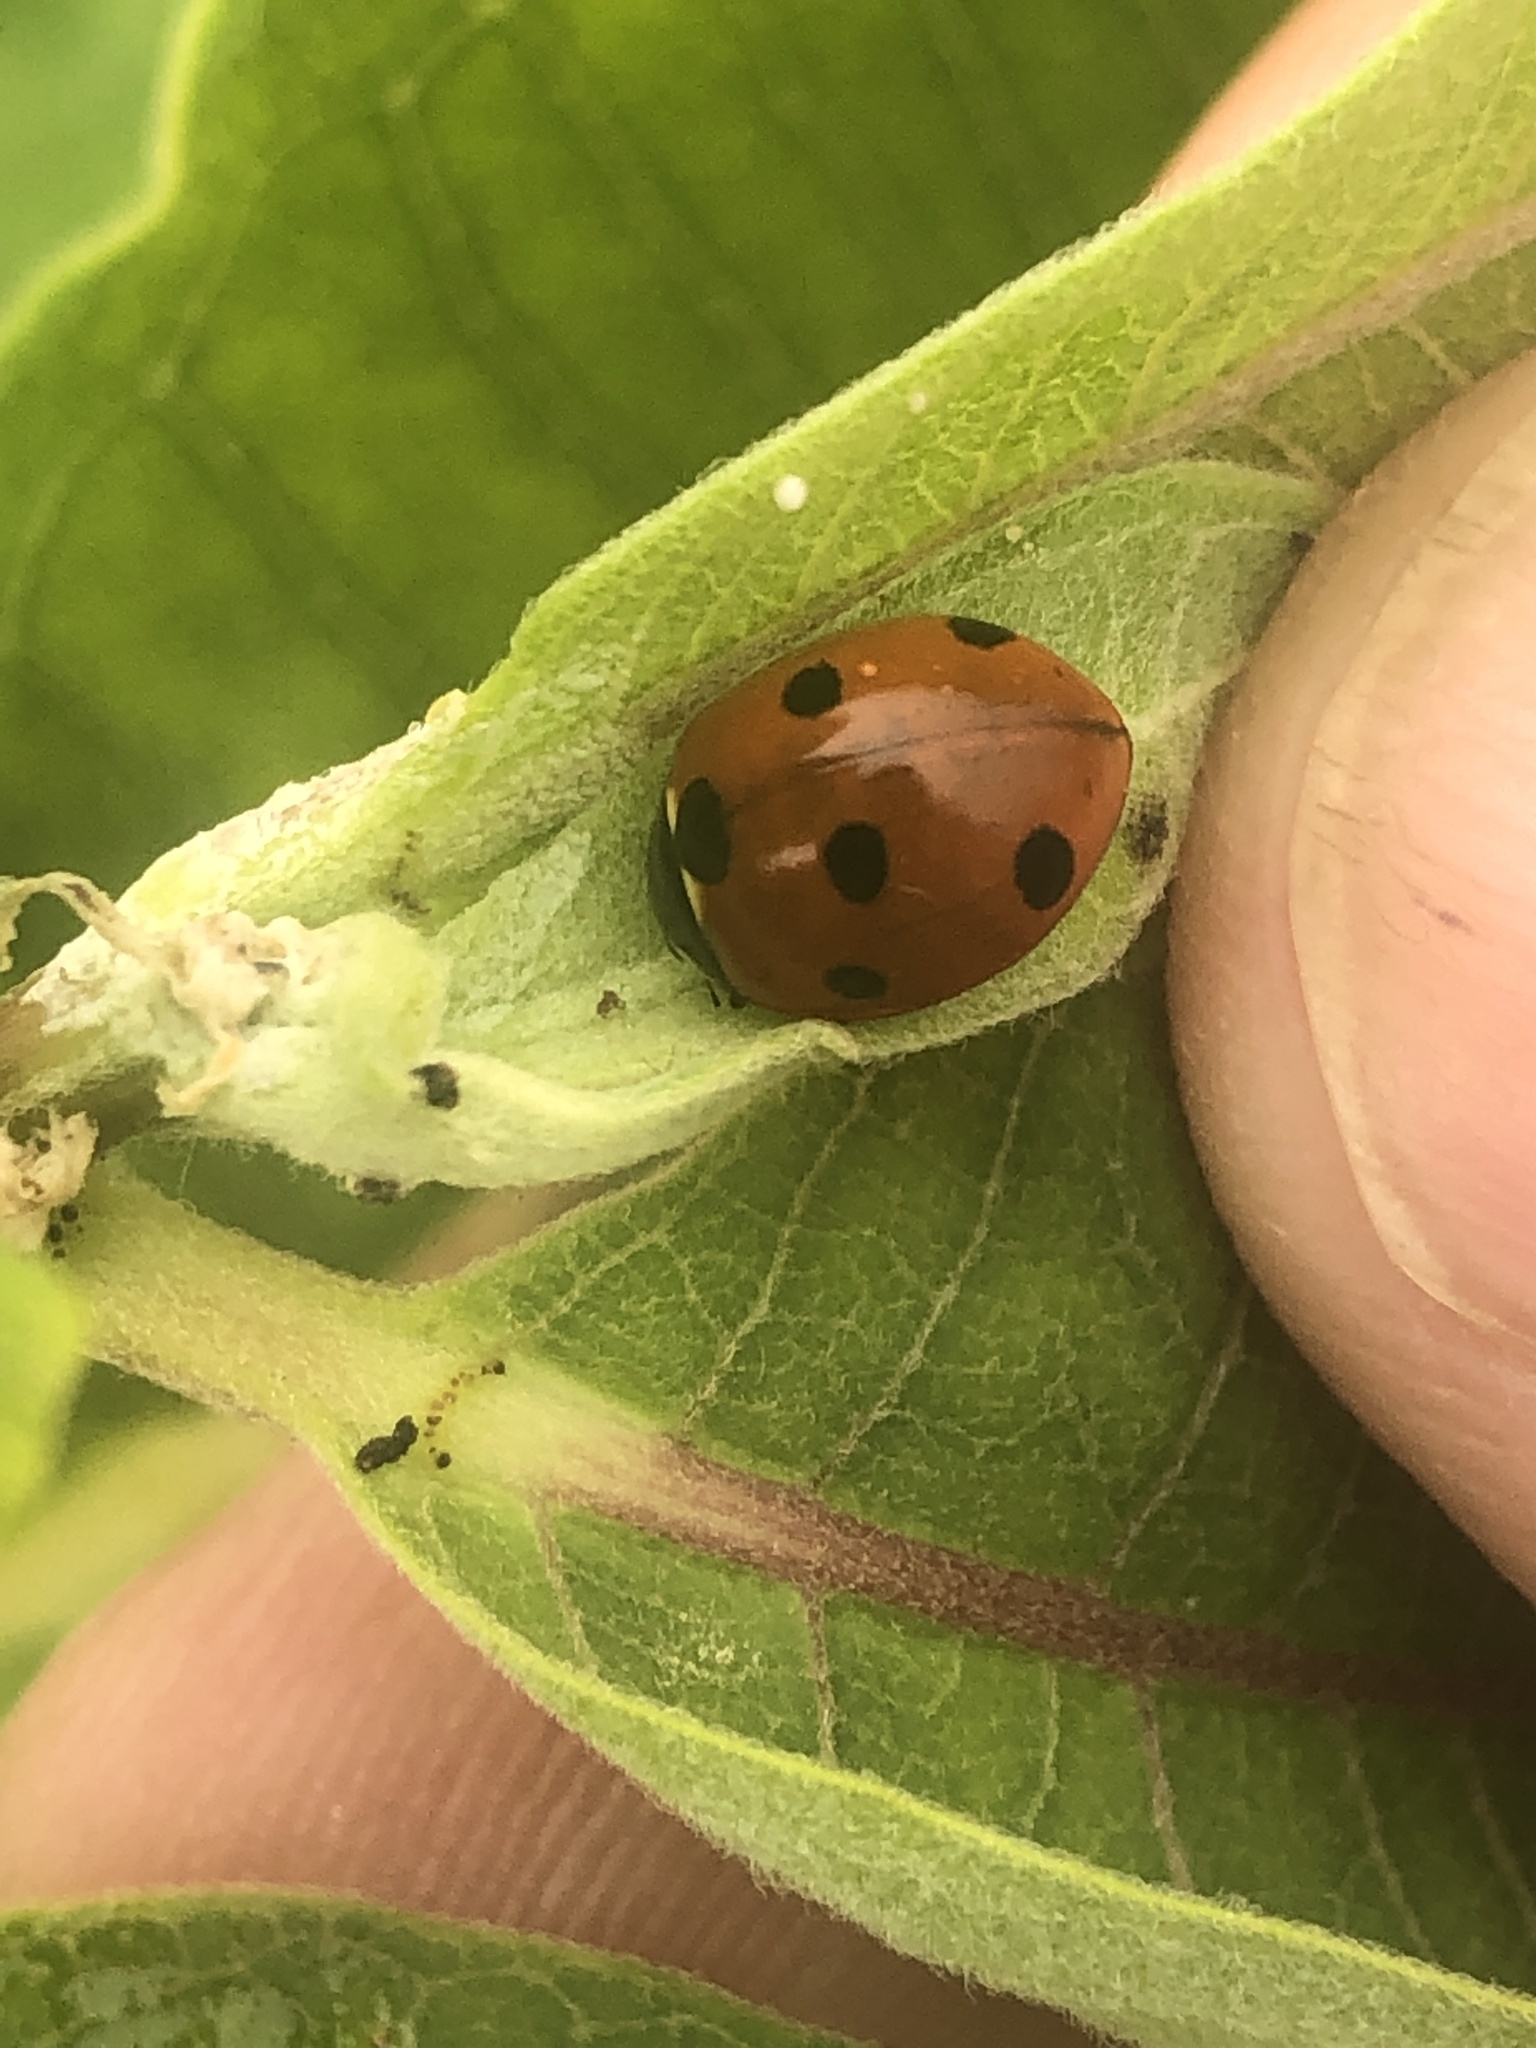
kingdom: Animalia
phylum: Arthropoda
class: Insecta
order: Coleoptera
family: Coccinellidae
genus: Coccinella
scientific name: Coccinella septempunctata
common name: Sevenspotted lady beetle
